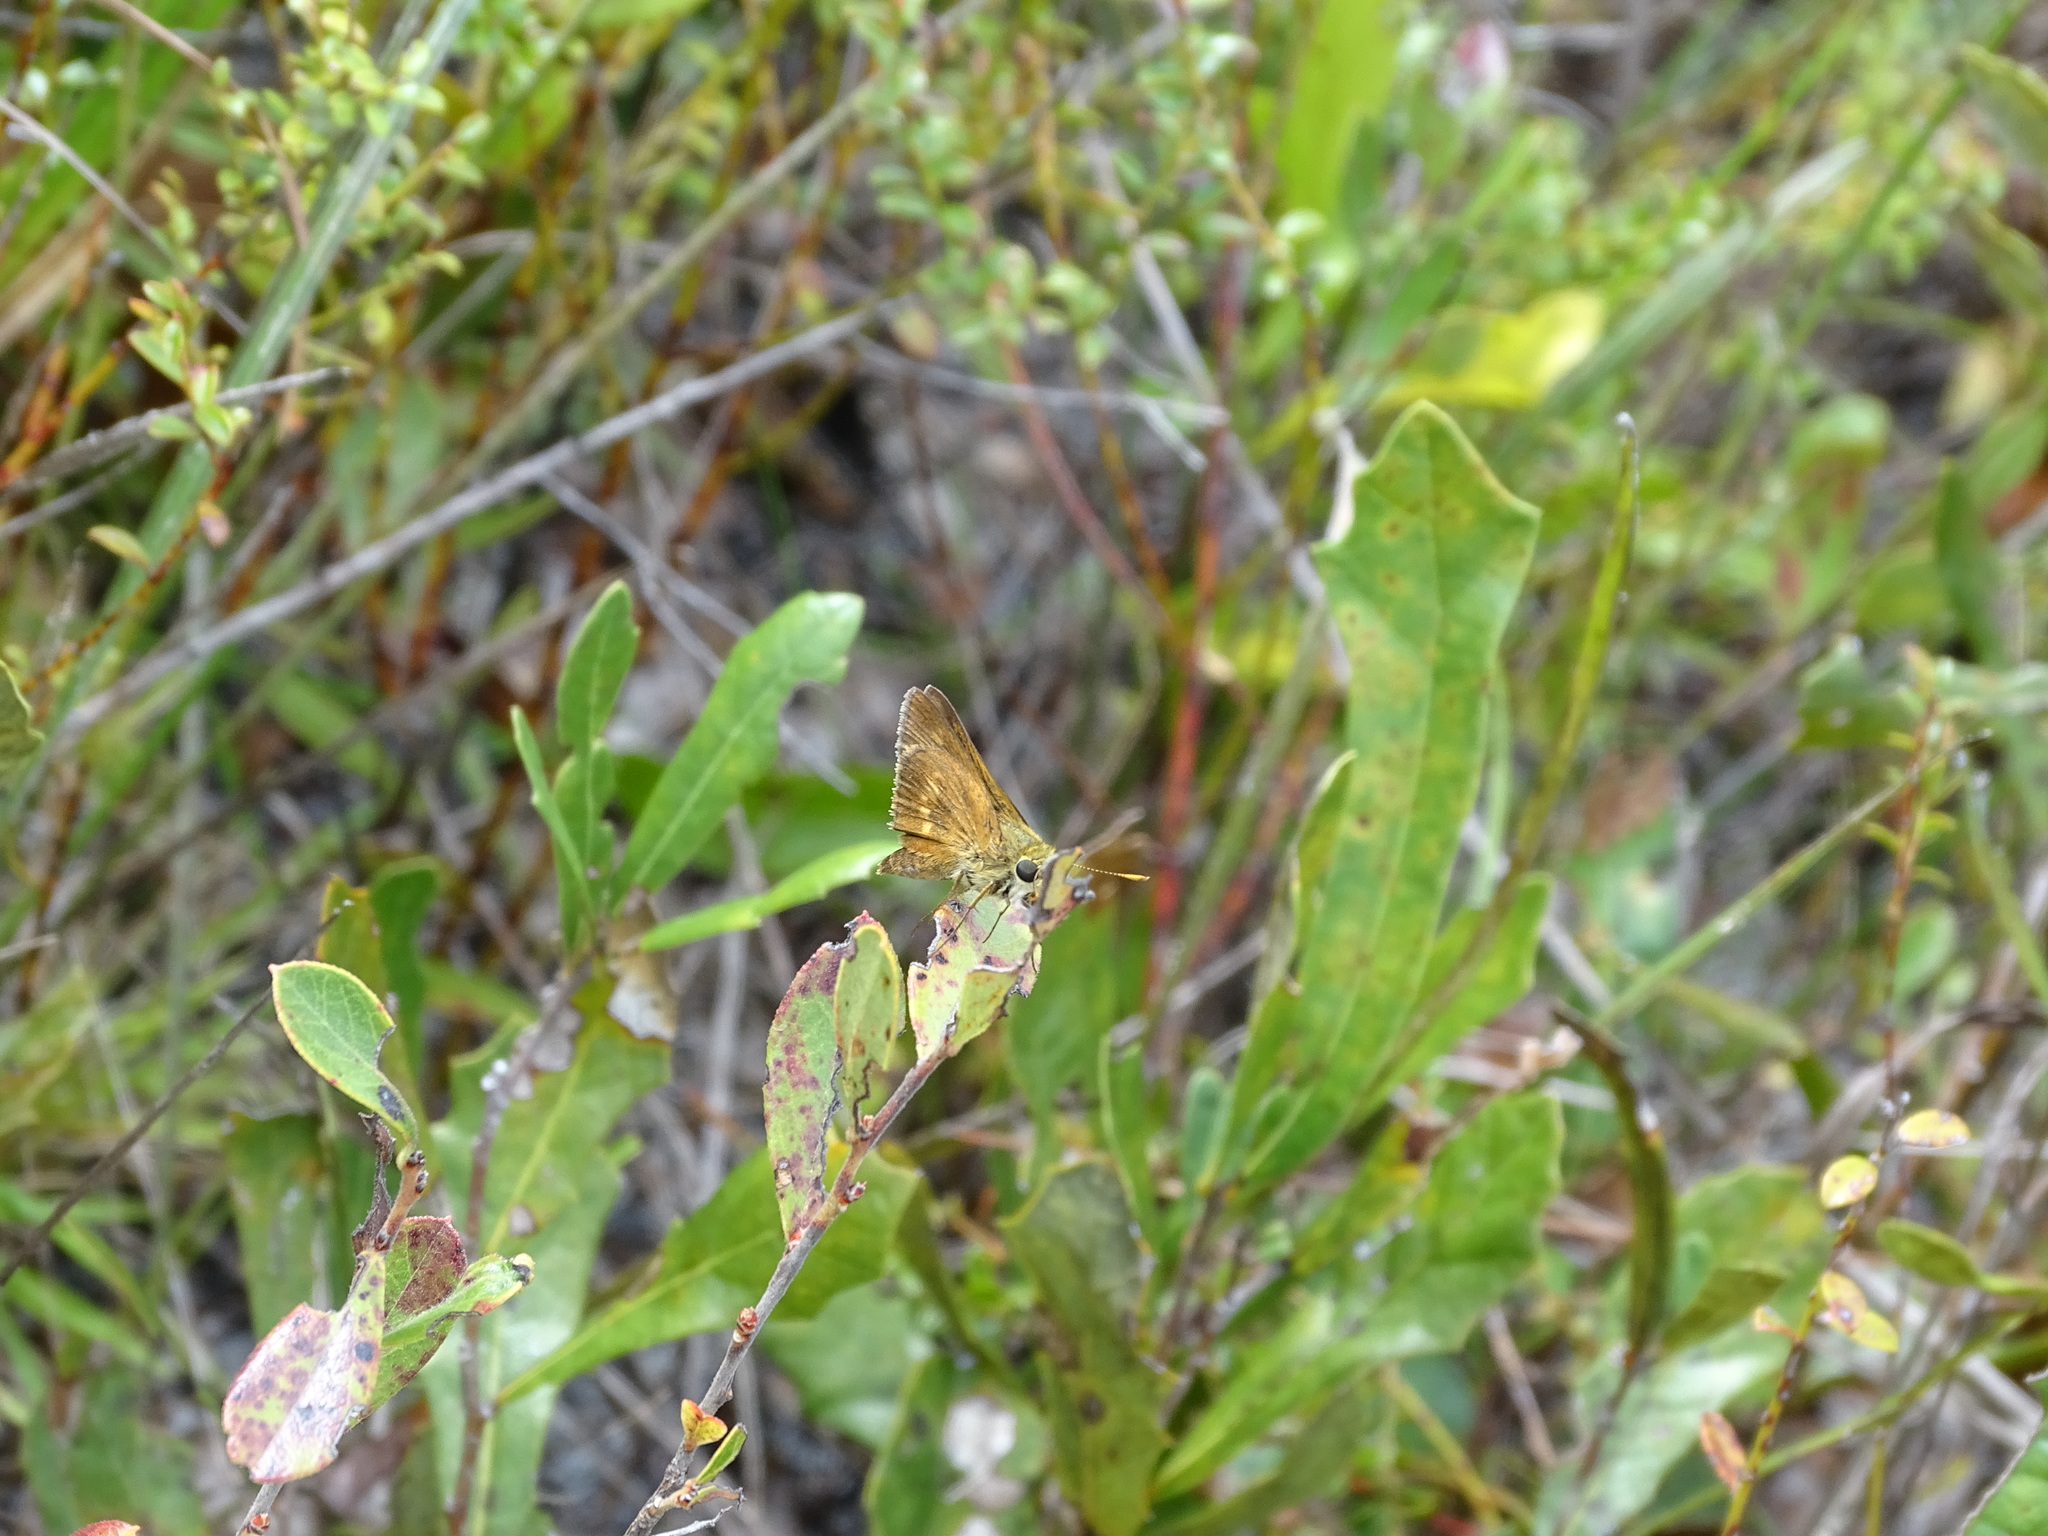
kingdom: Animalia
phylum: Arthropoda
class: Insecta
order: Lepidoptera
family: Hesperiidae
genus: Polites
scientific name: Polites otho
